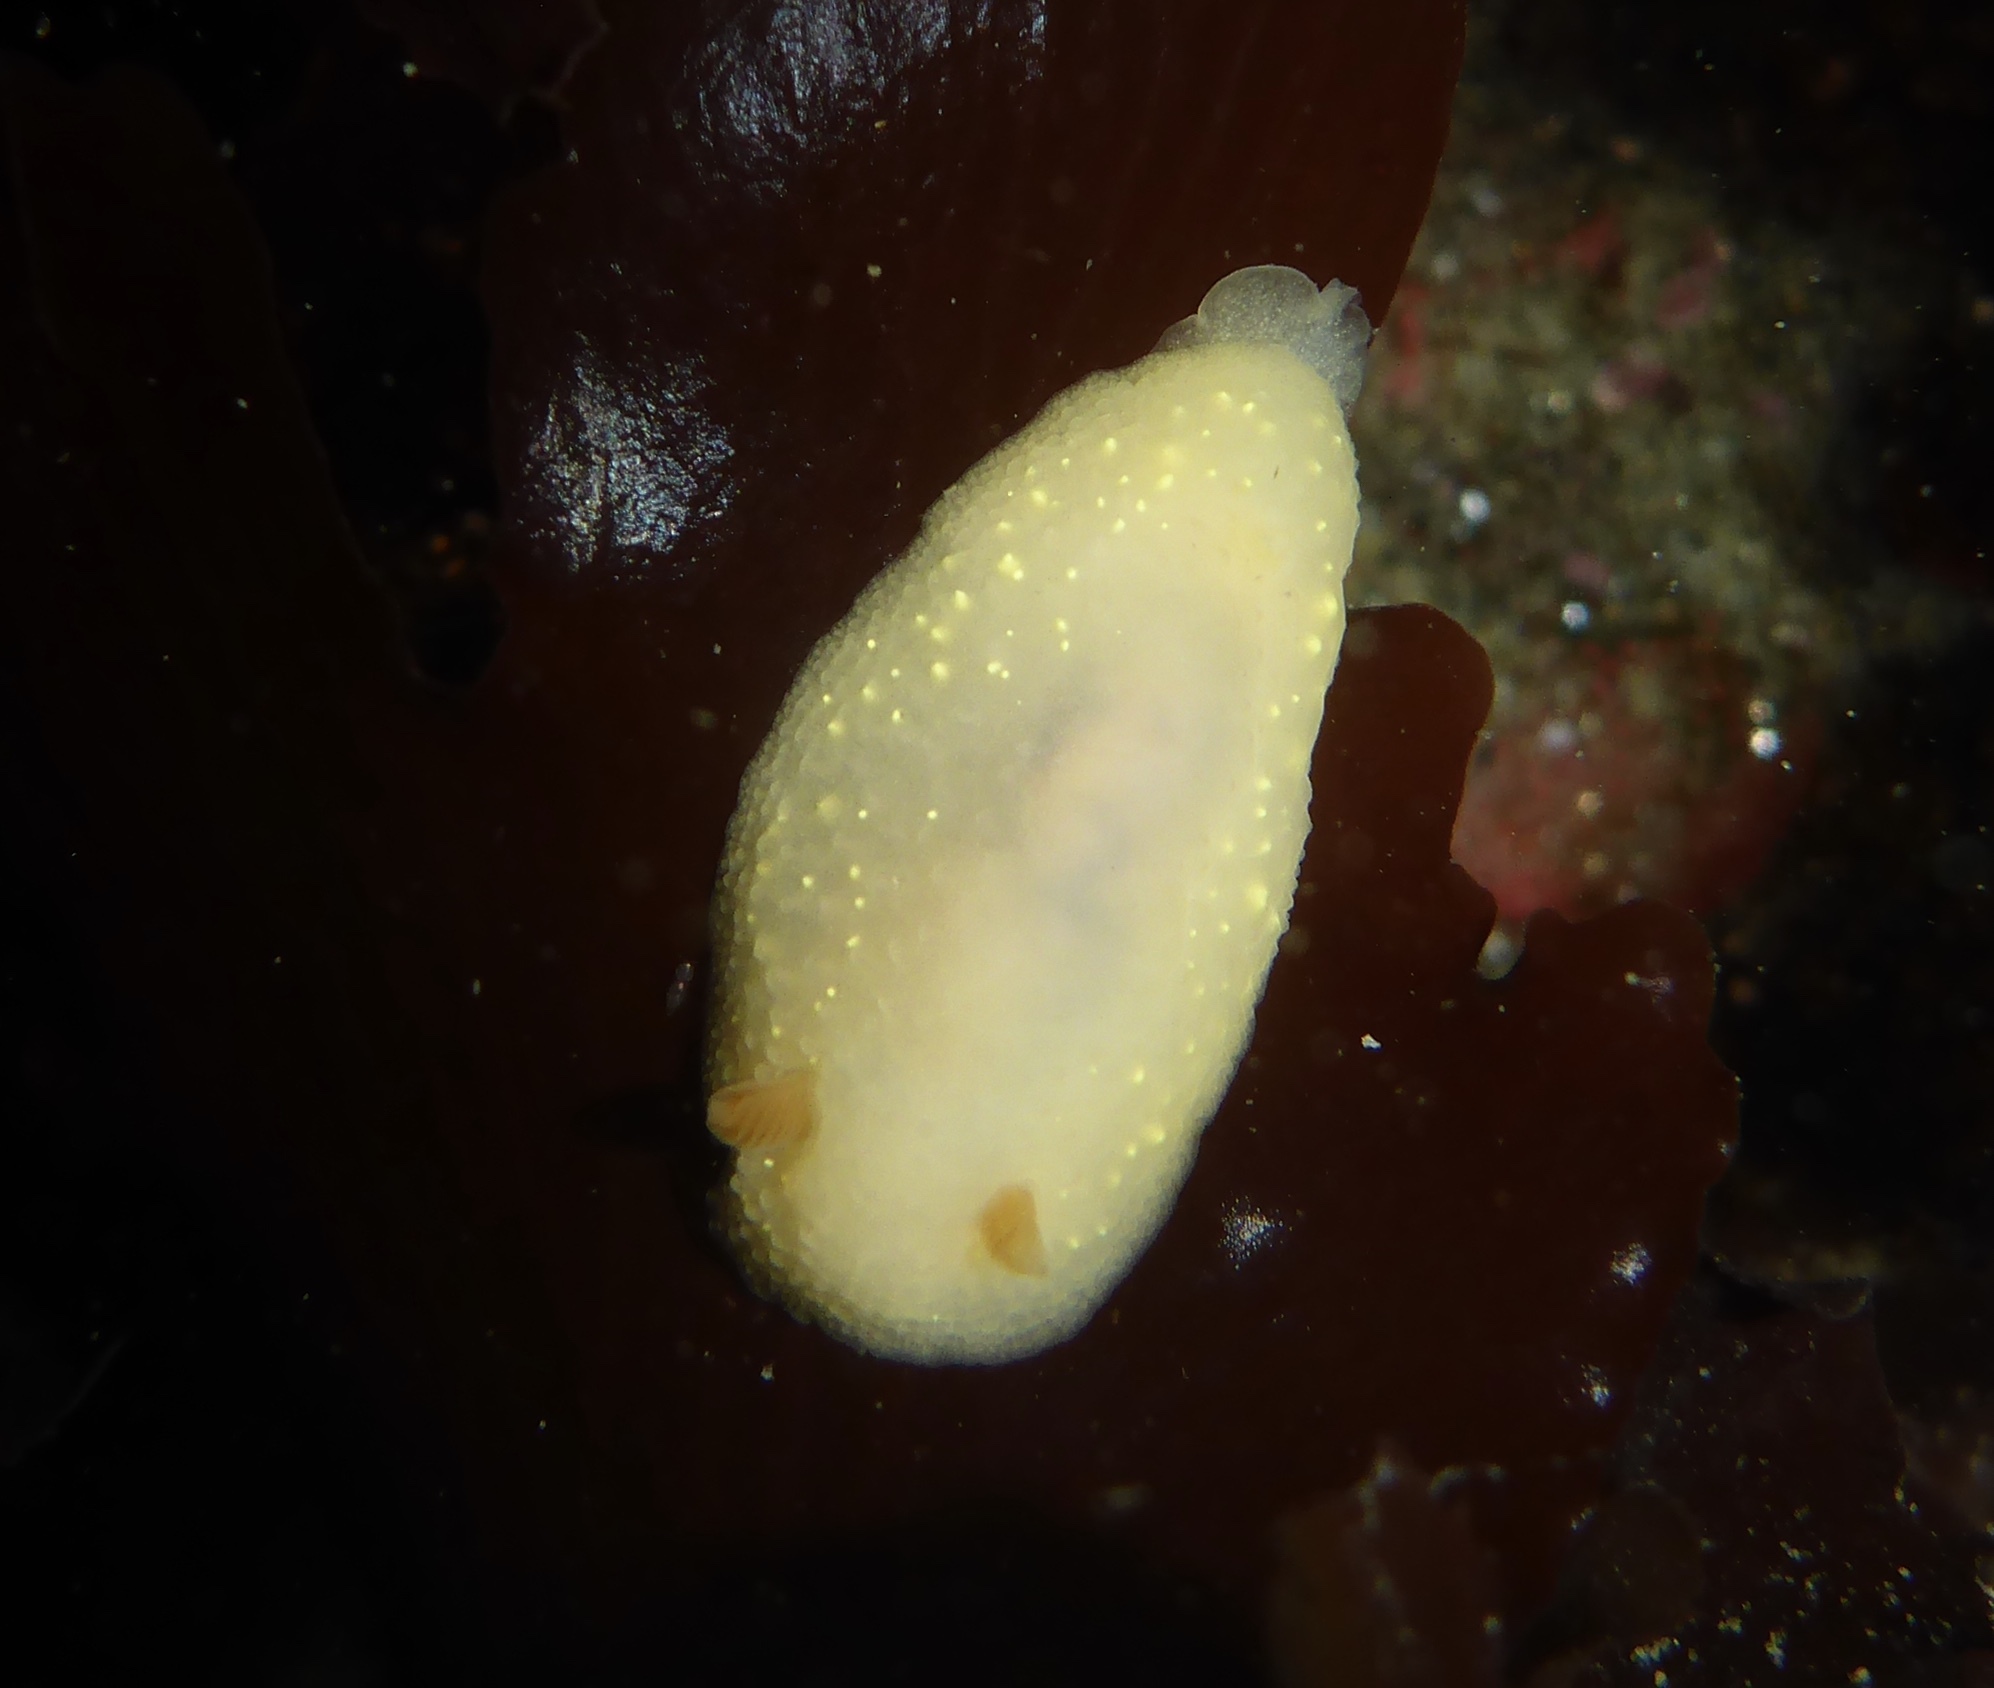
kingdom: Animalia
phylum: Mollusca
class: Gastropoda
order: Nudibranchia
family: Cadlinidae
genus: Cadlina
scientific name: Cadlina modesta
